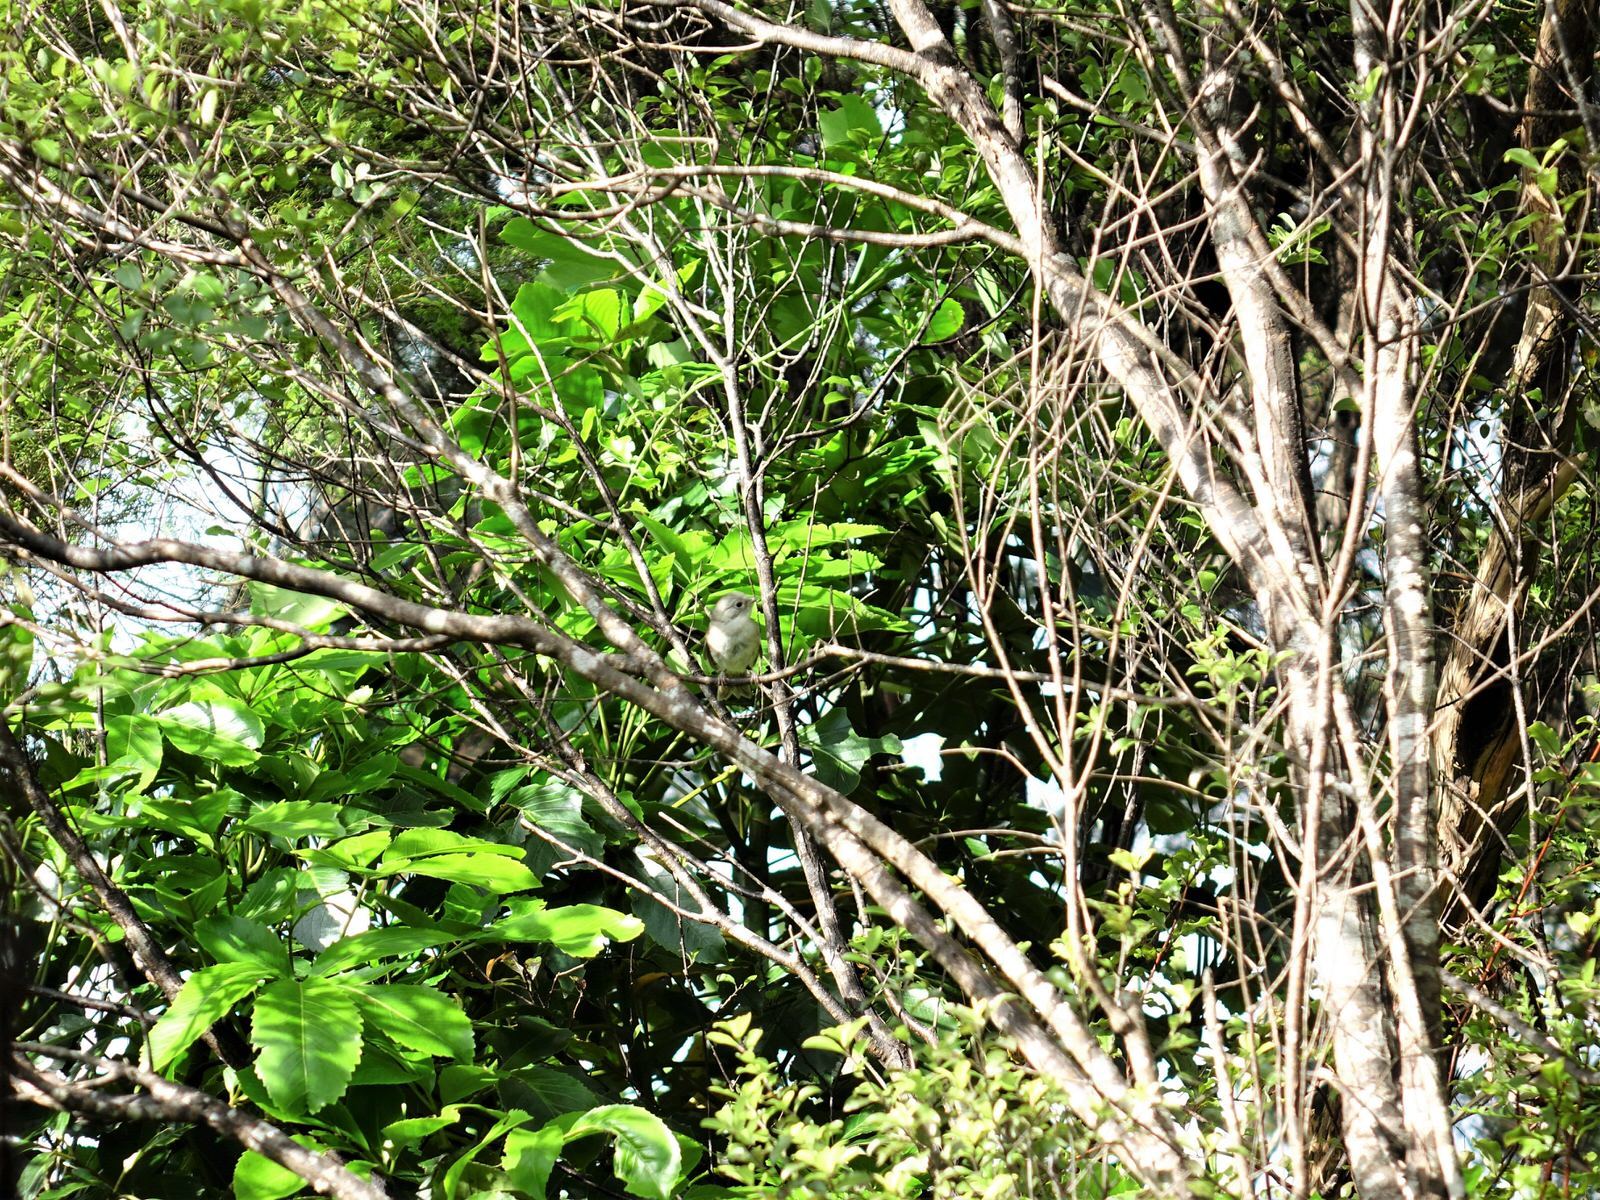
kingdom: Animalia
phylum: Chordata
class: Aves
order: Passeriformes
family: Acanthizidae
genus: Mohoua
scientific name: Mohoua albicilla
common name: Whitehead
